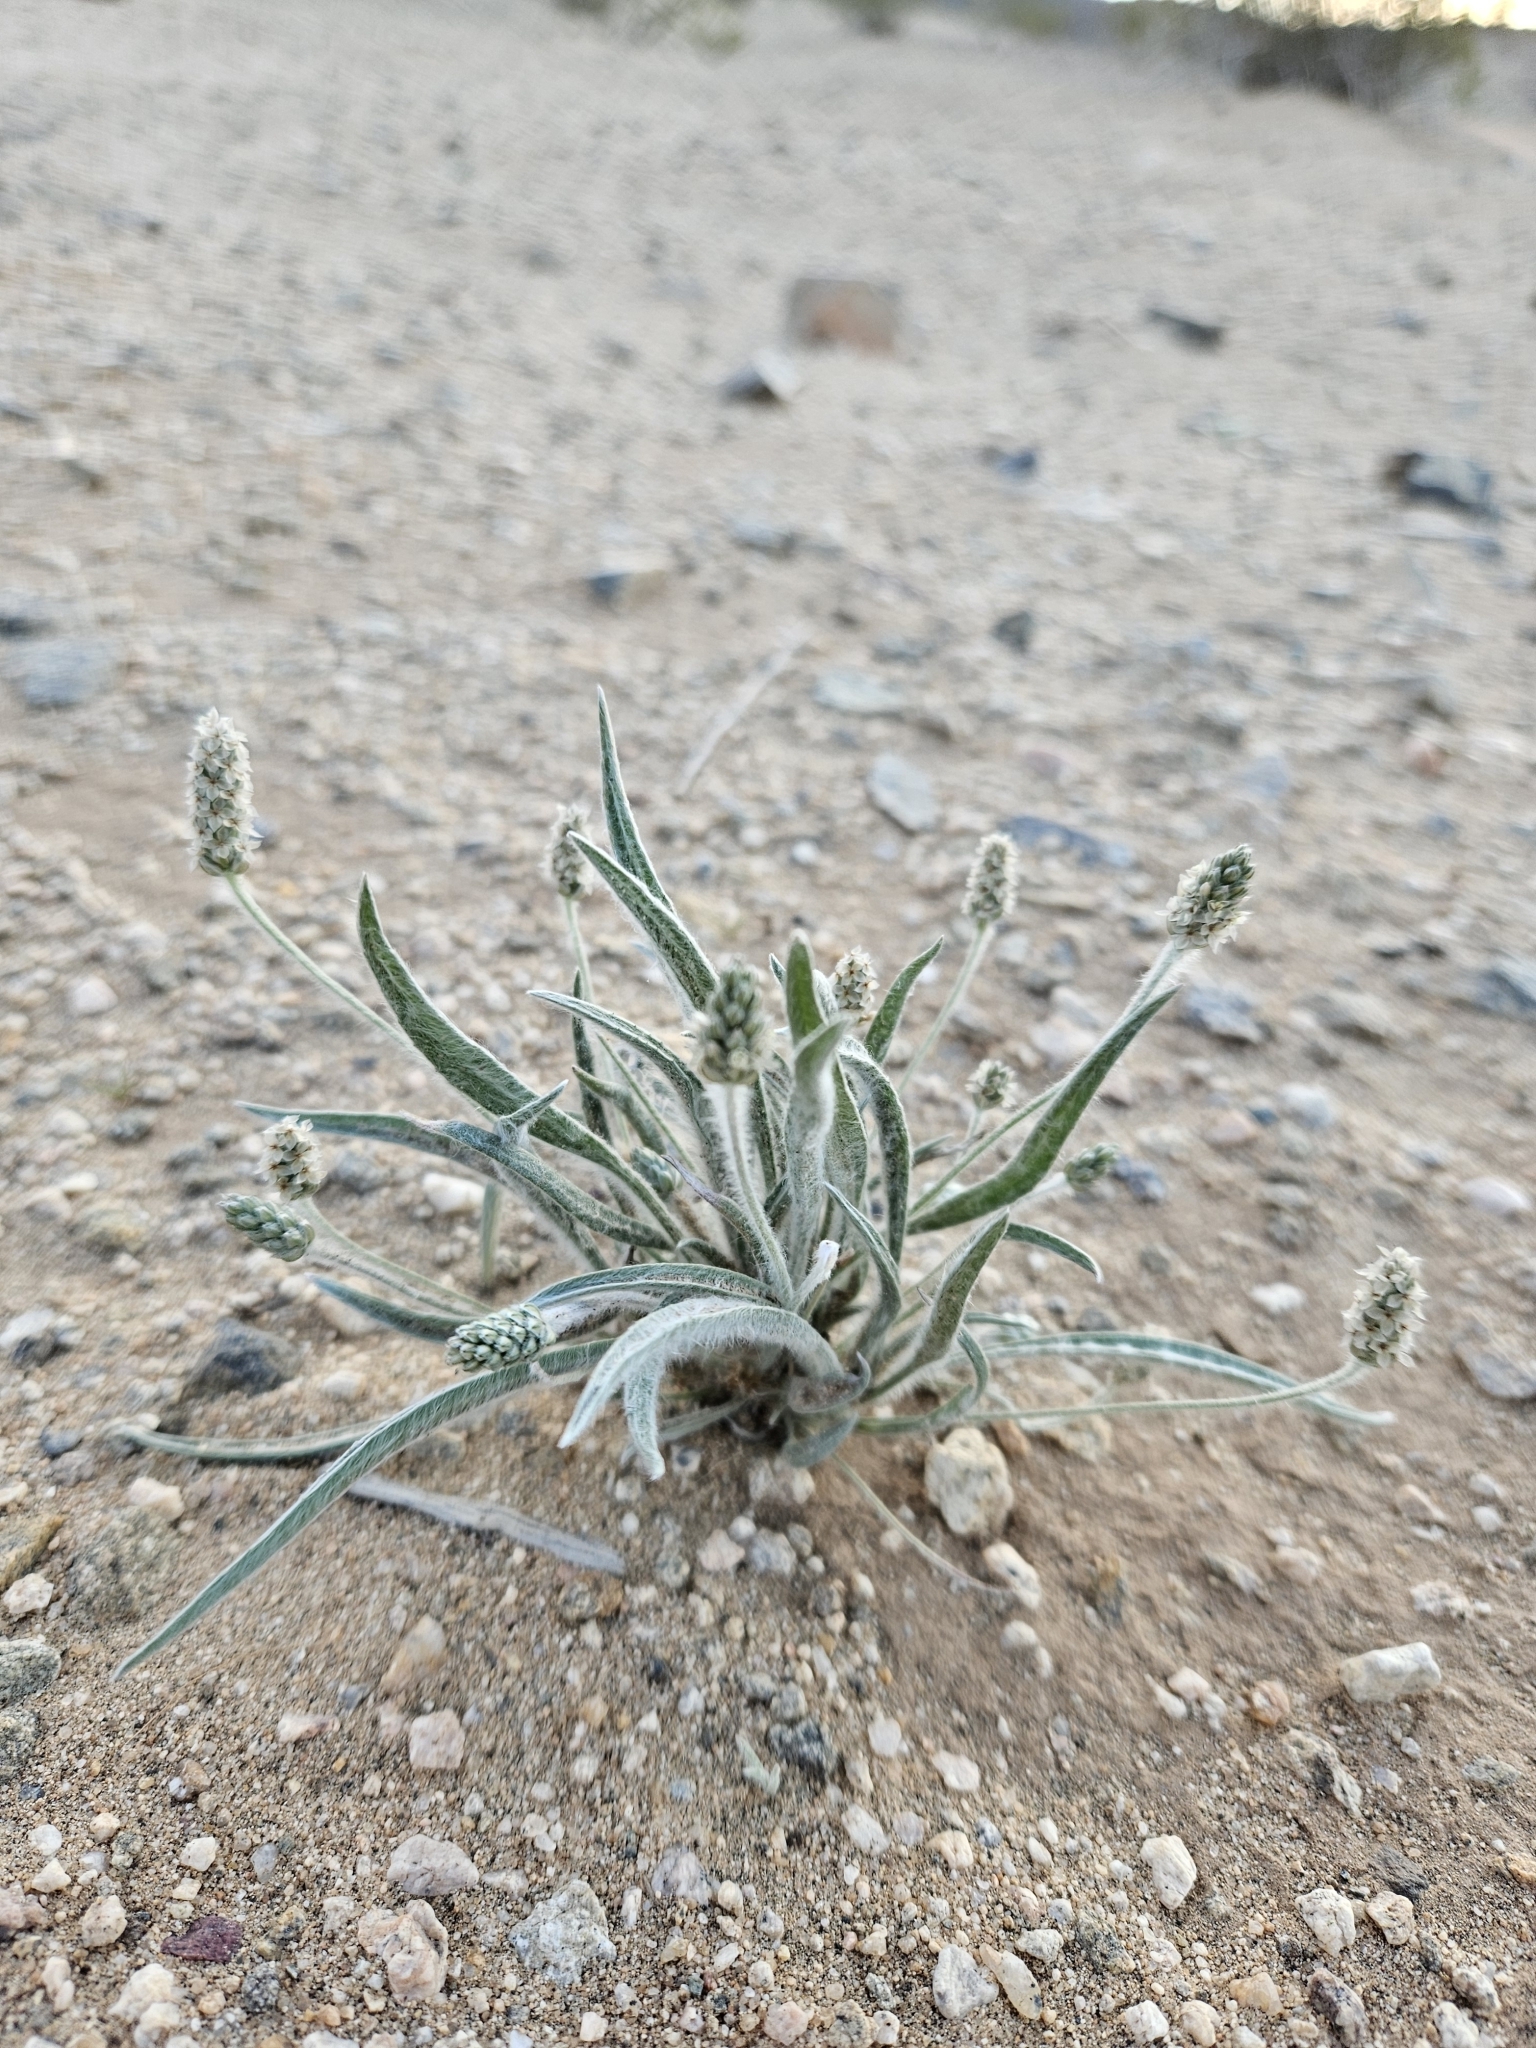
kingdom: Plantae
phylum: Tracheophyta
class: Magnoliopsida
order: Lamiales
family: Plantaginaceae
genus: Plantago
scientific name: Plantago ovata
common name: Blond plantain
